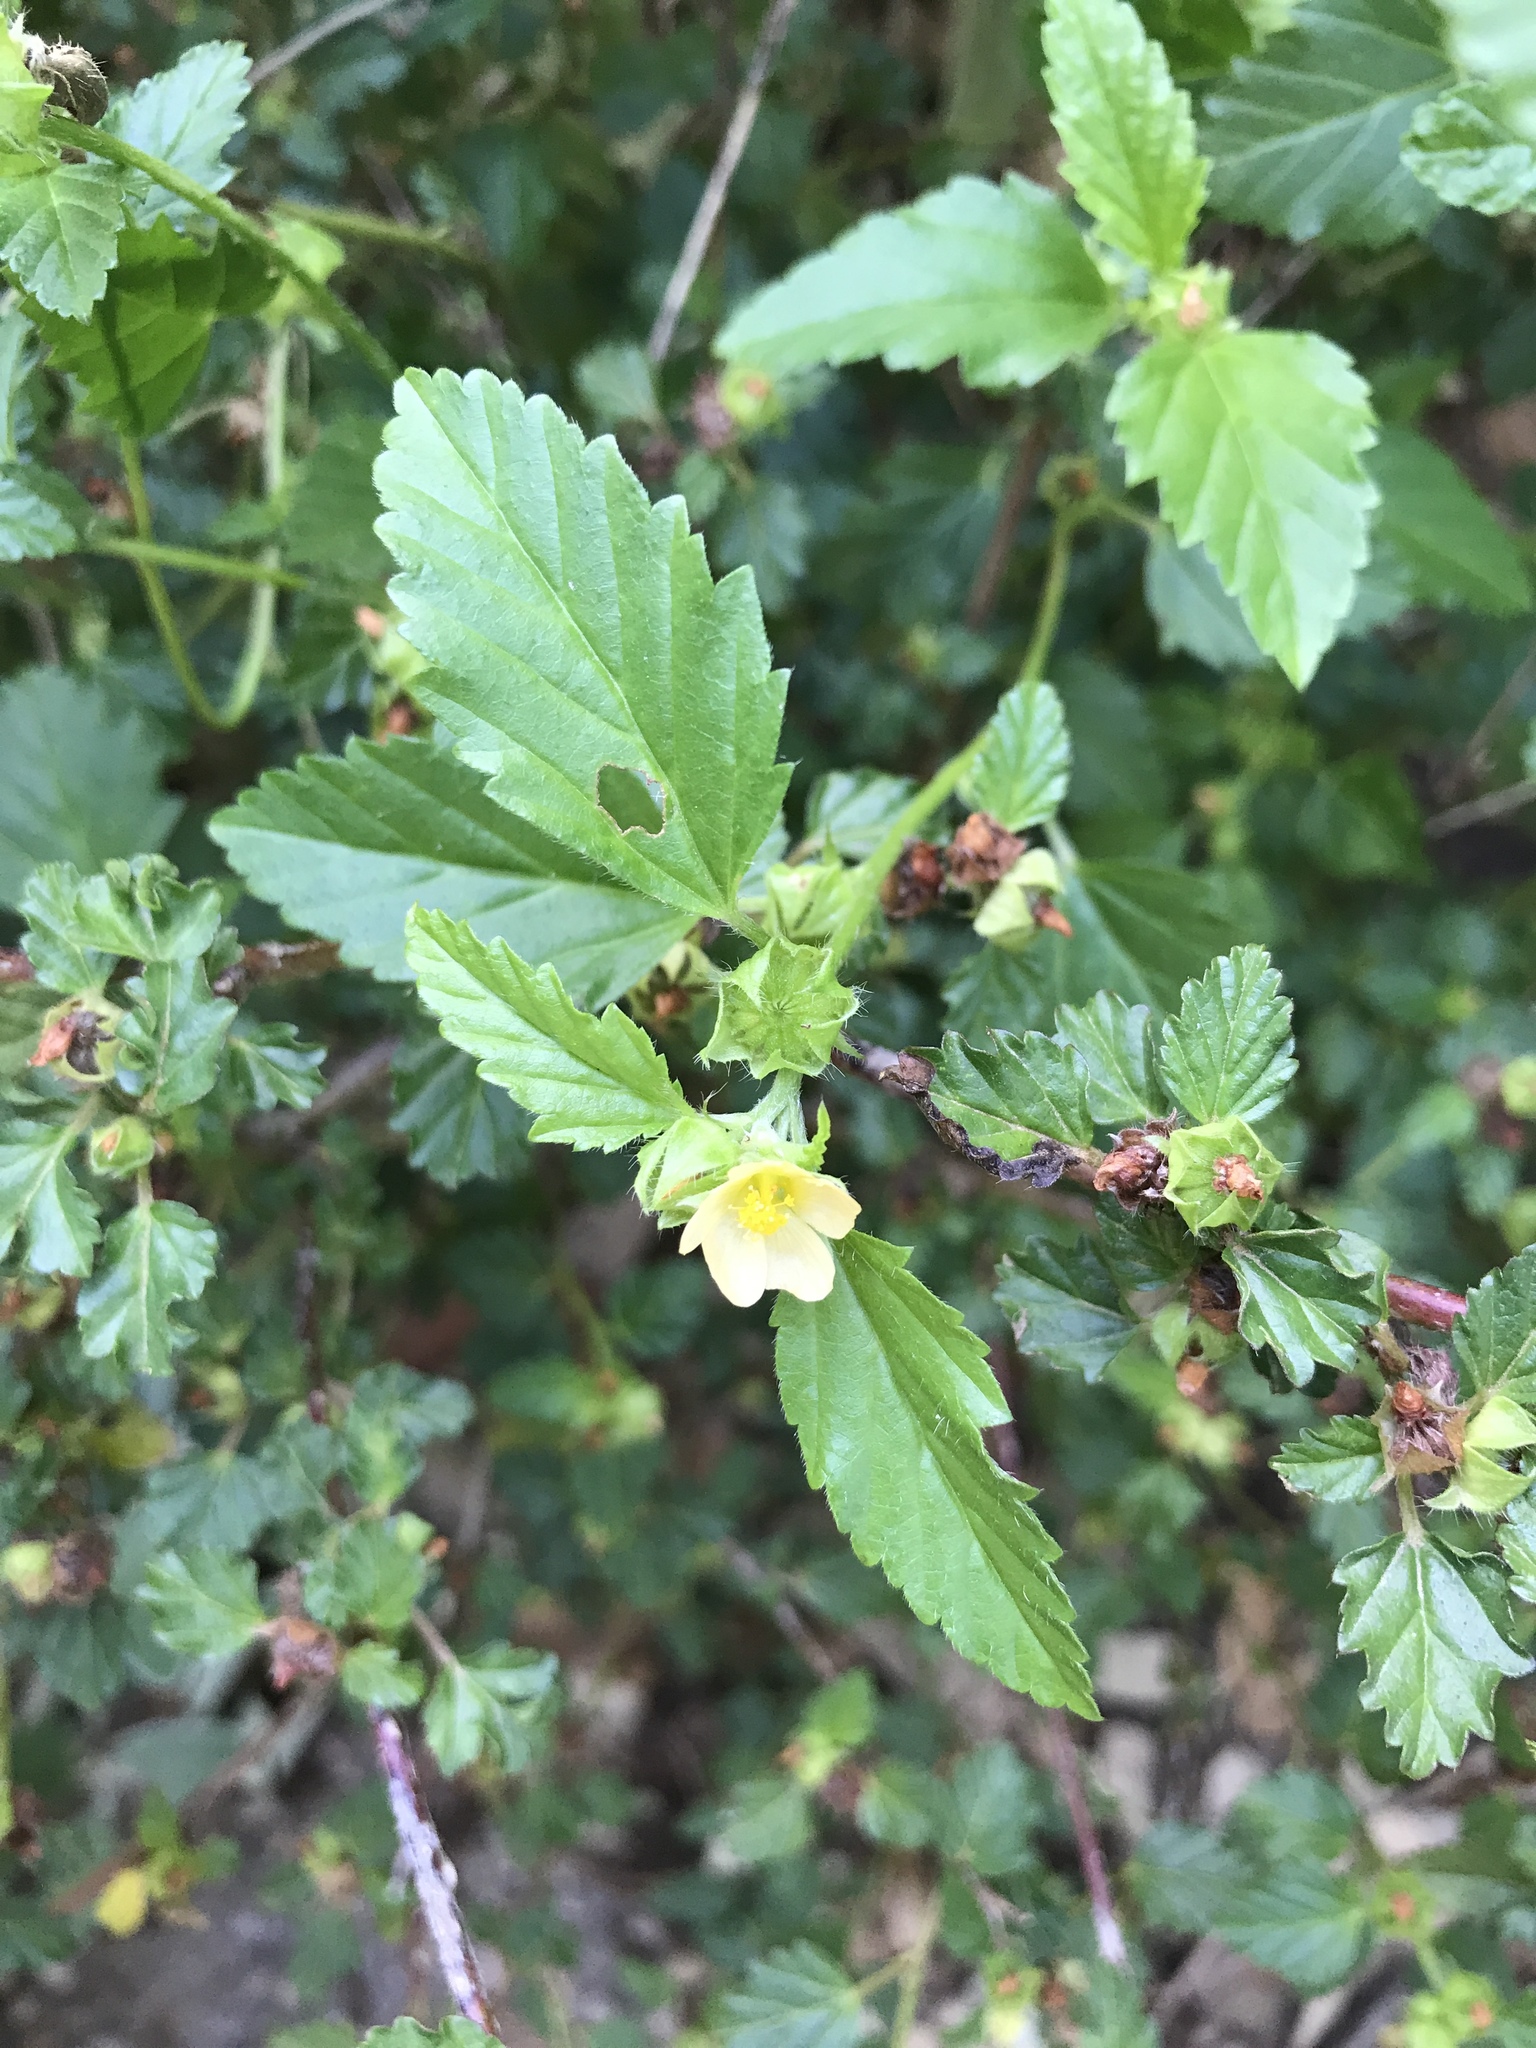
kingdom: Plantae
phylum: Tracheophyta
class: Magnoliopsida
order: Malvales
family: Malvaceae
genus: Malvastrum
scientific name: Malvastrum coromandelianum
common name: Threelobe false mallow
